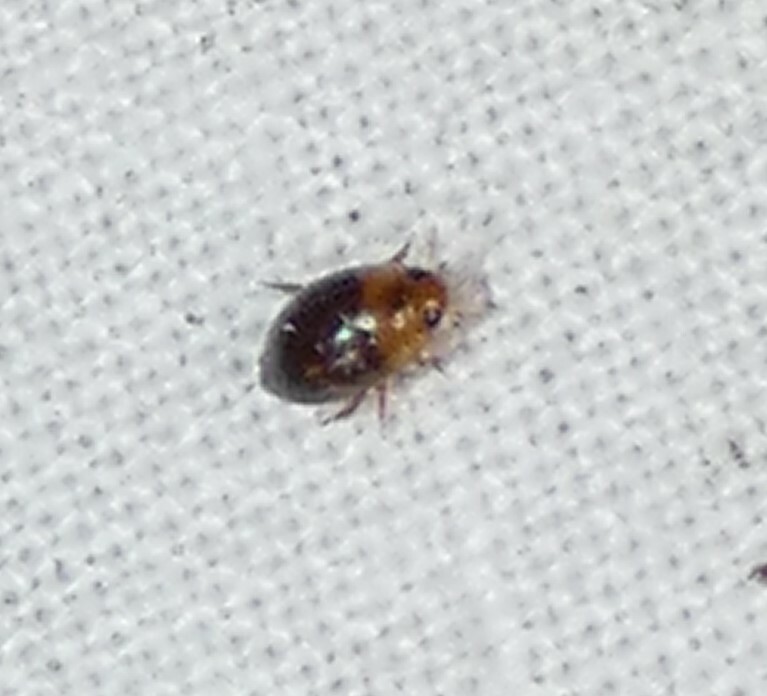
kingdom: Animalia
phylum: Arthropoda
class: Insecta
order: Coleoptera
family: Noteridae
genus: Suphisellus
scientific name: Suphisellus puncticollis
